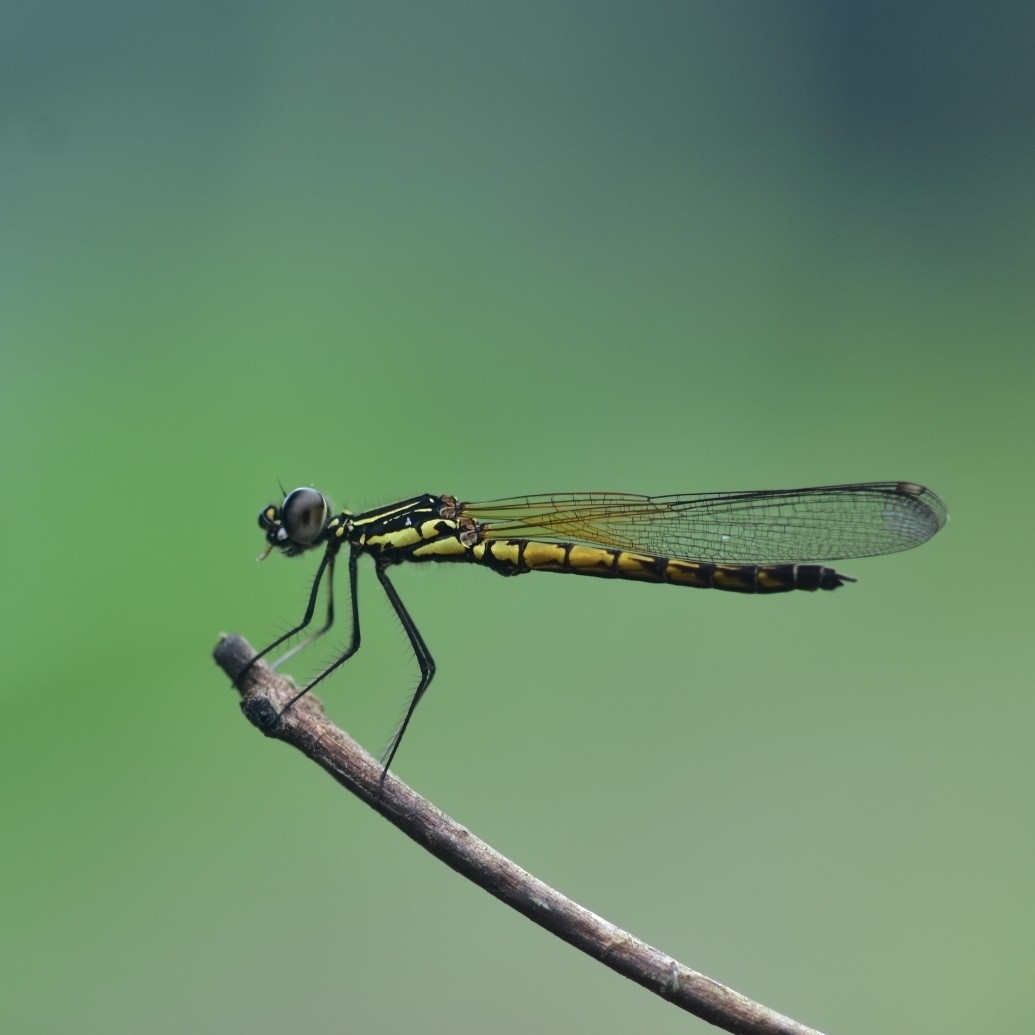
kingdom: Animalia
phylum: Arthropoda
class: Insecta
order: Odonata
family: Chlorocyphidae
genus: Libellago
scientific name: Libellago indica
